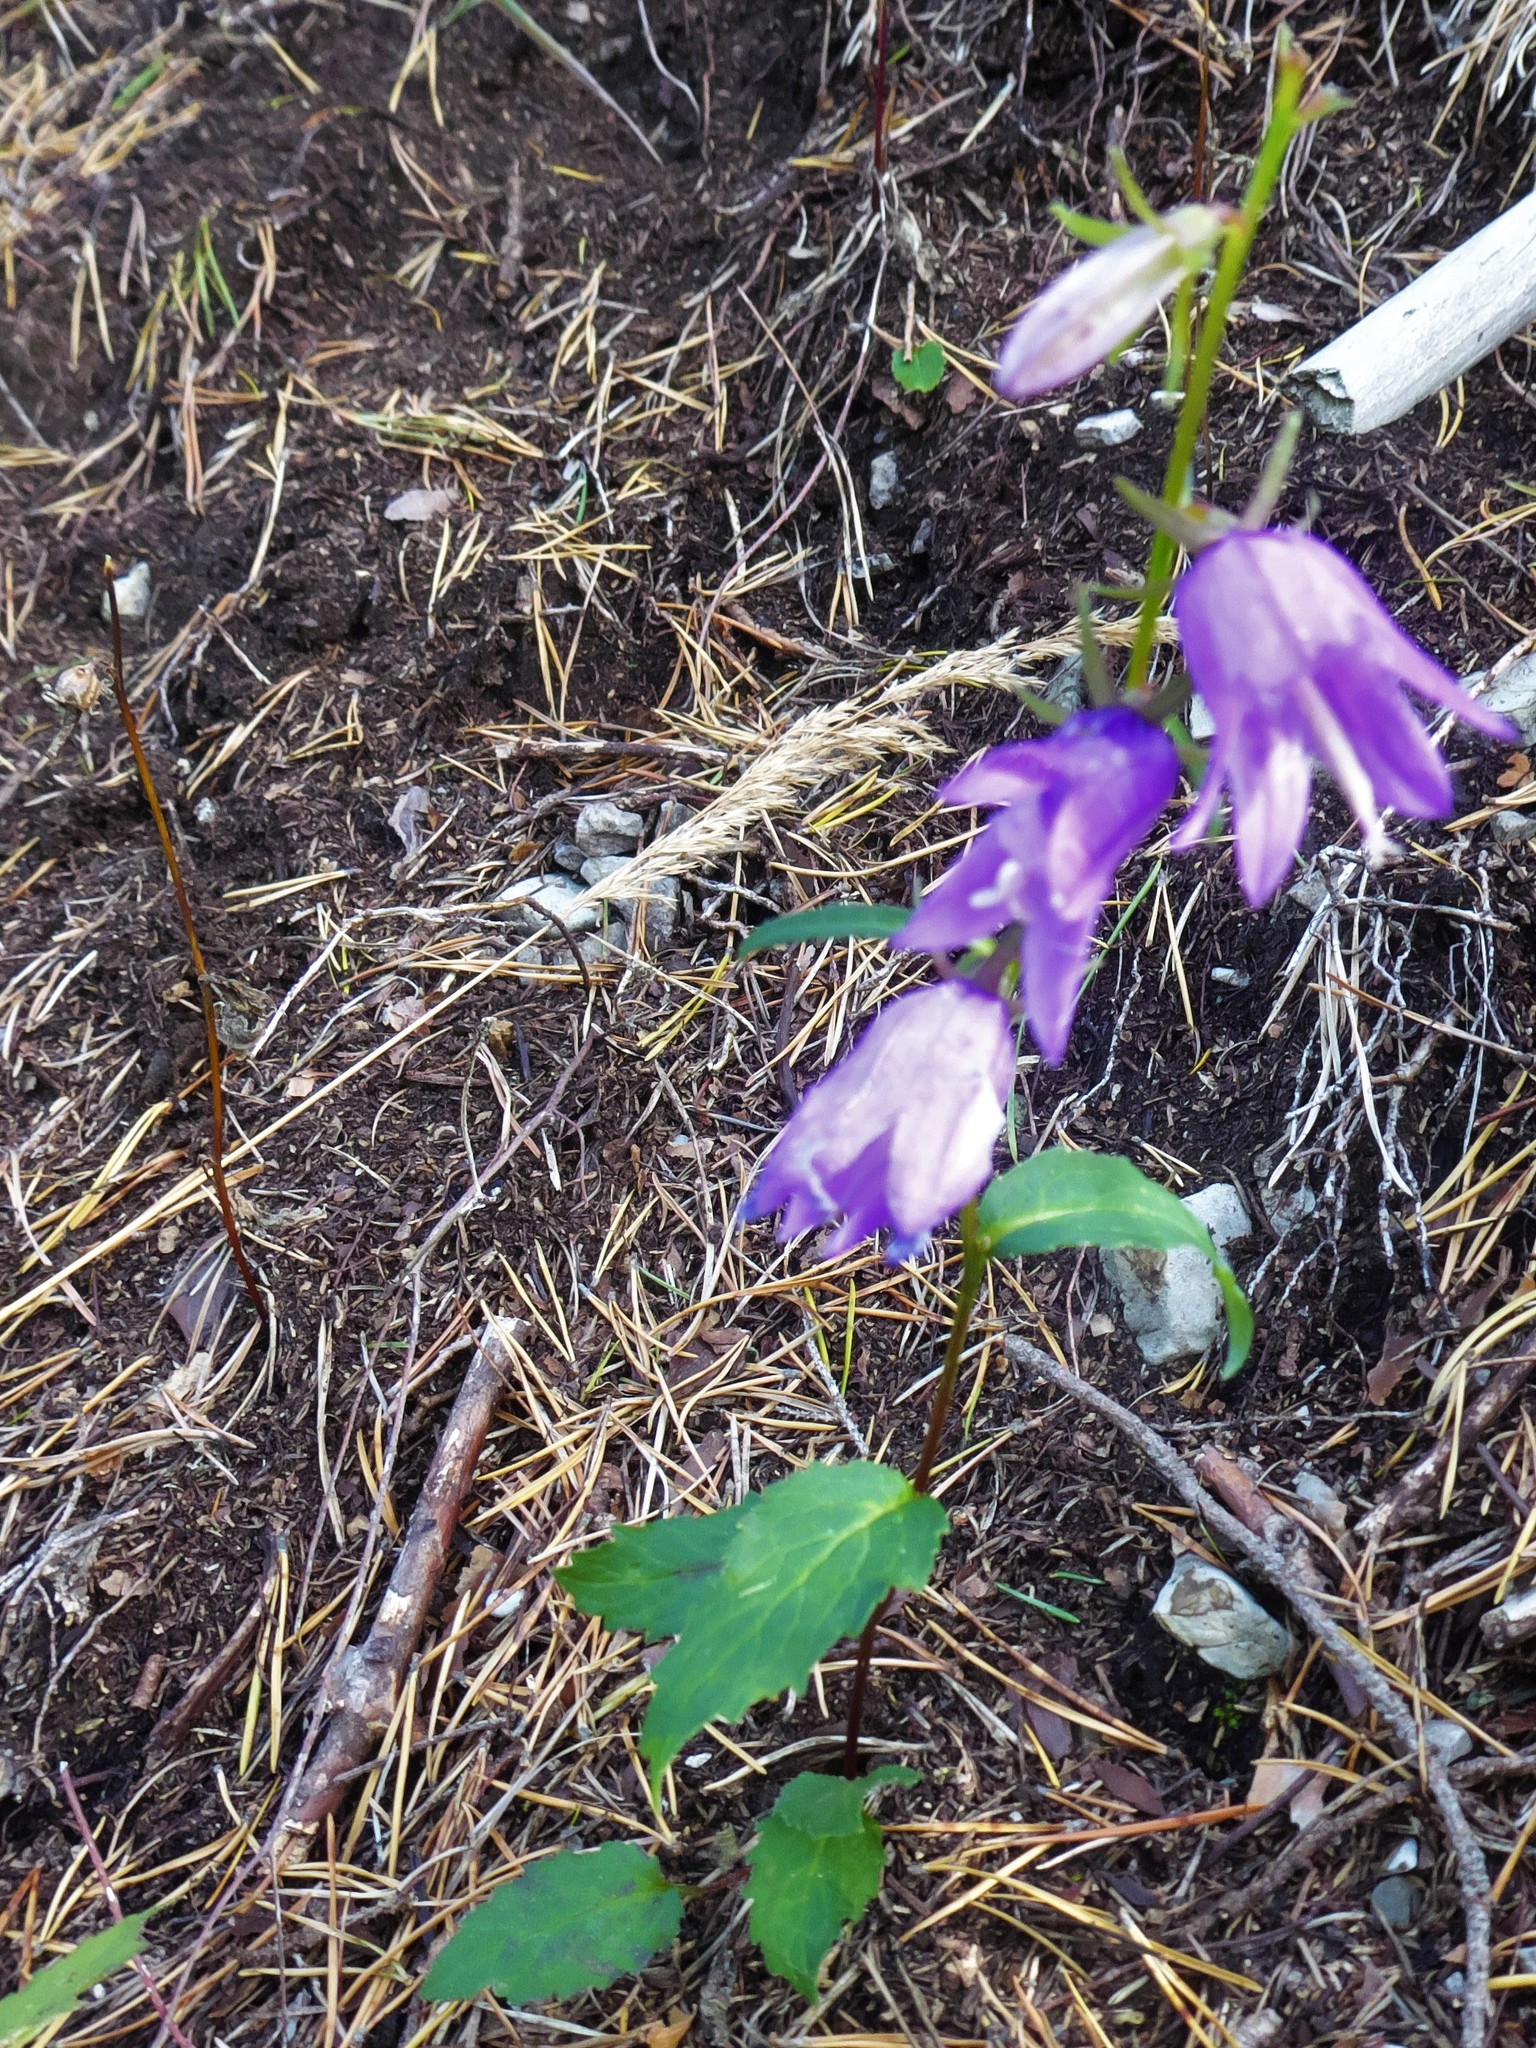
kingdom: Plantae
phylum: Tracheophyta
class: Magnoliopsida
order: Asterales
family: Campanulaceae
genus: Campanula
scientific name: Campanula trachelium
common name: Nettle-leaved bellflower
